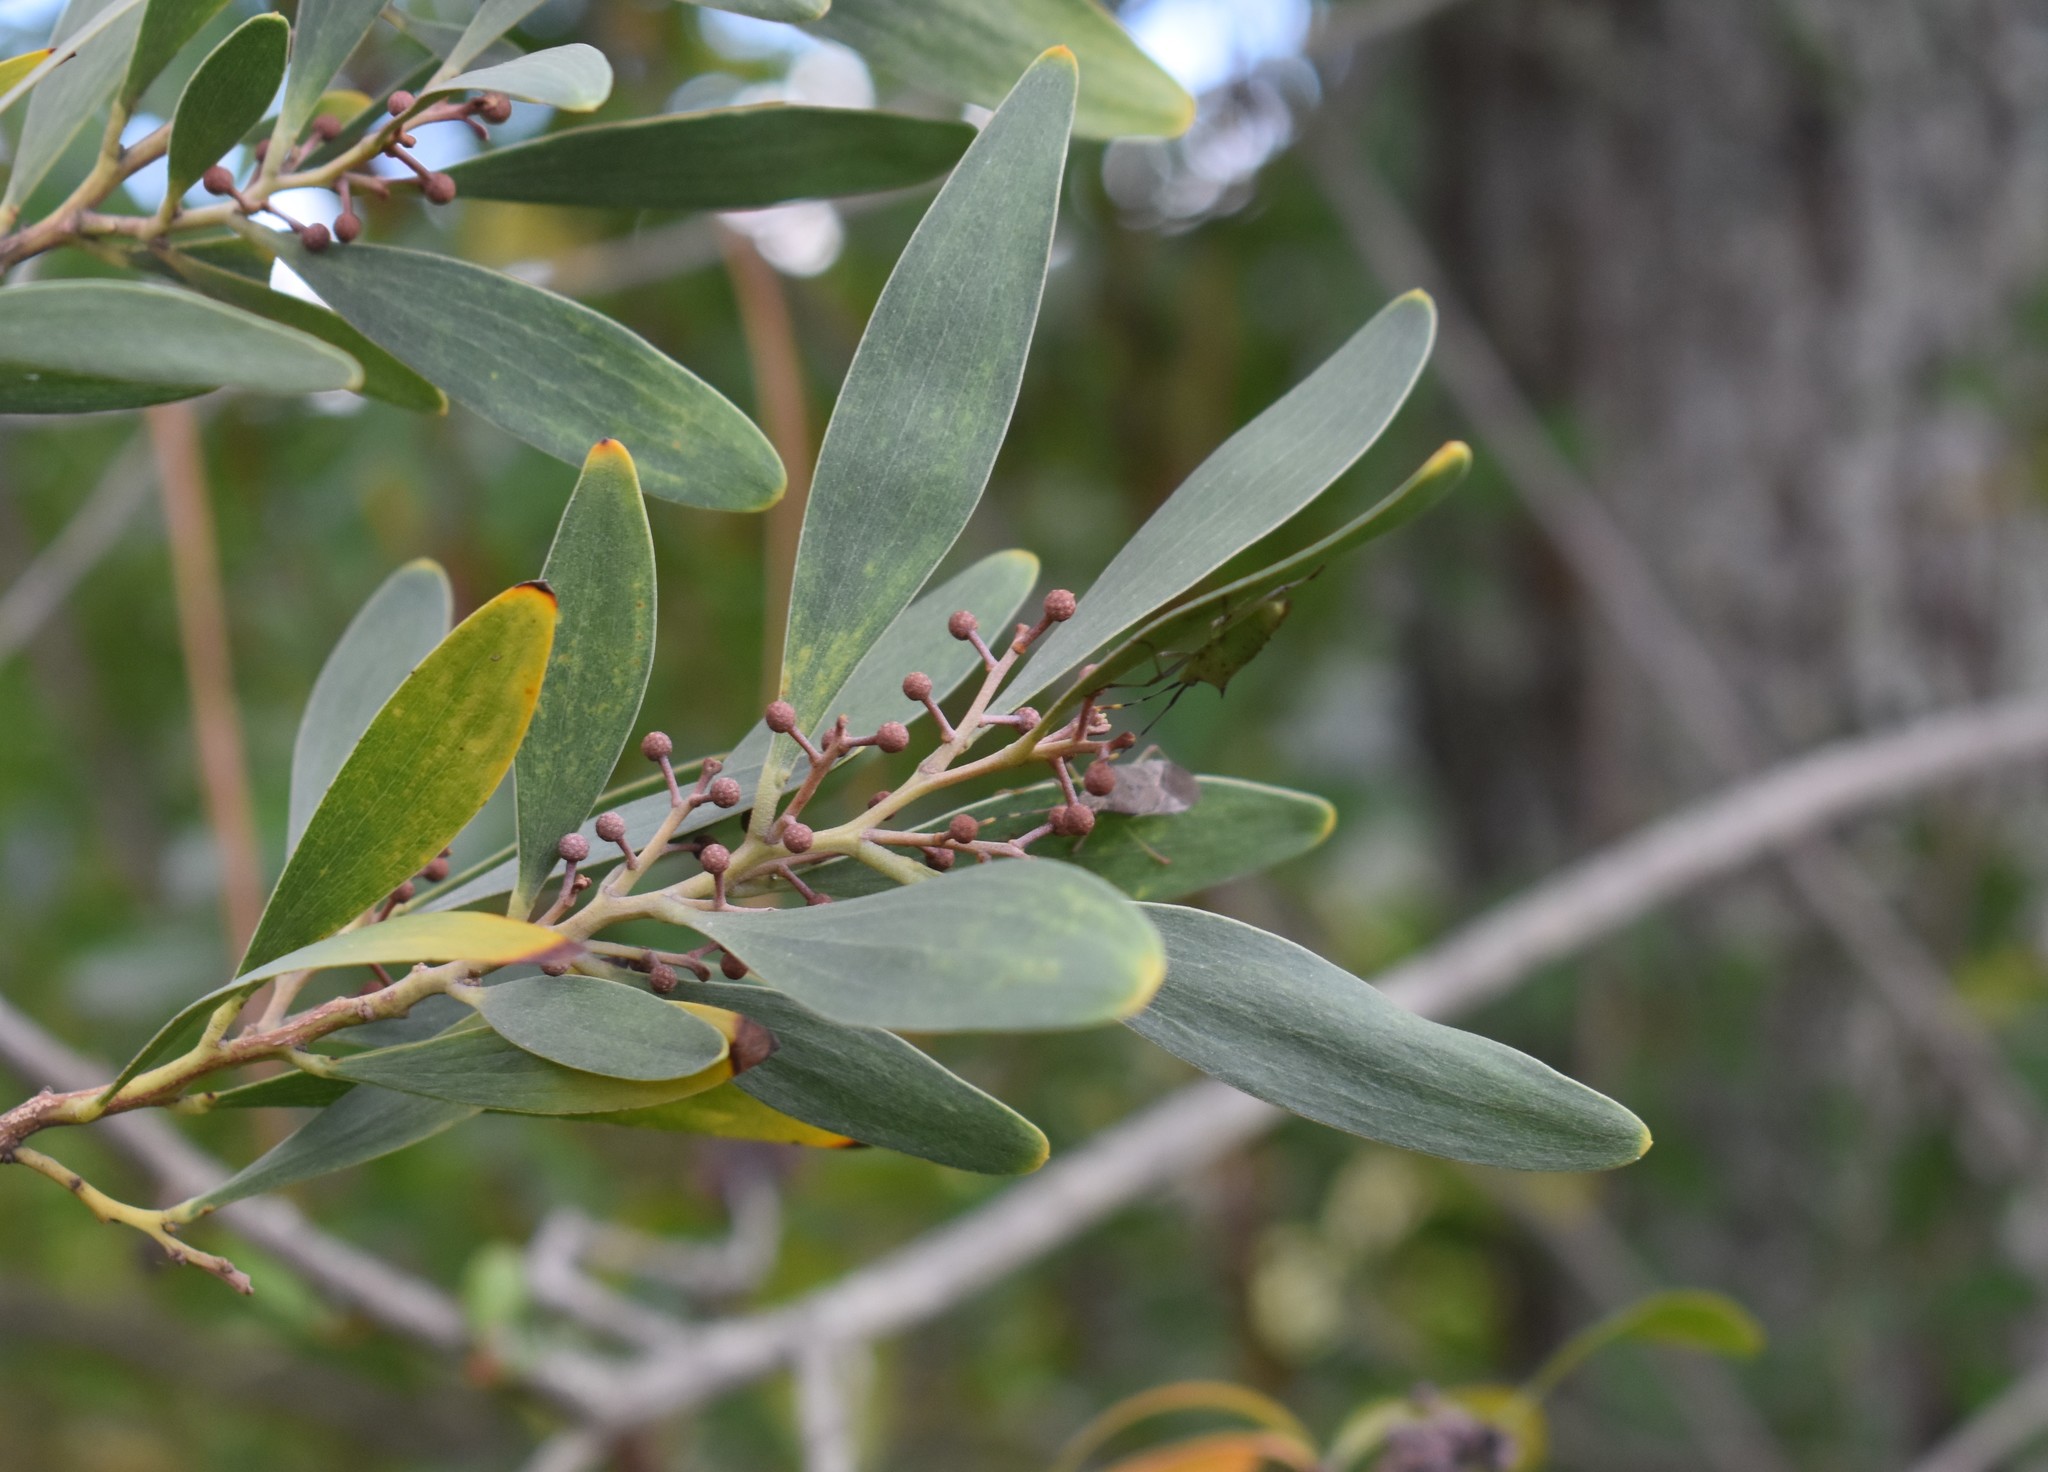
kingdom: Plantae
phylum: Tracheophyta
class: Magnoliopsida
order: Fabales
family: Fabaceae
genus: Acacia
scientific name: Acacia melanoxylon
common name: Blackwood
